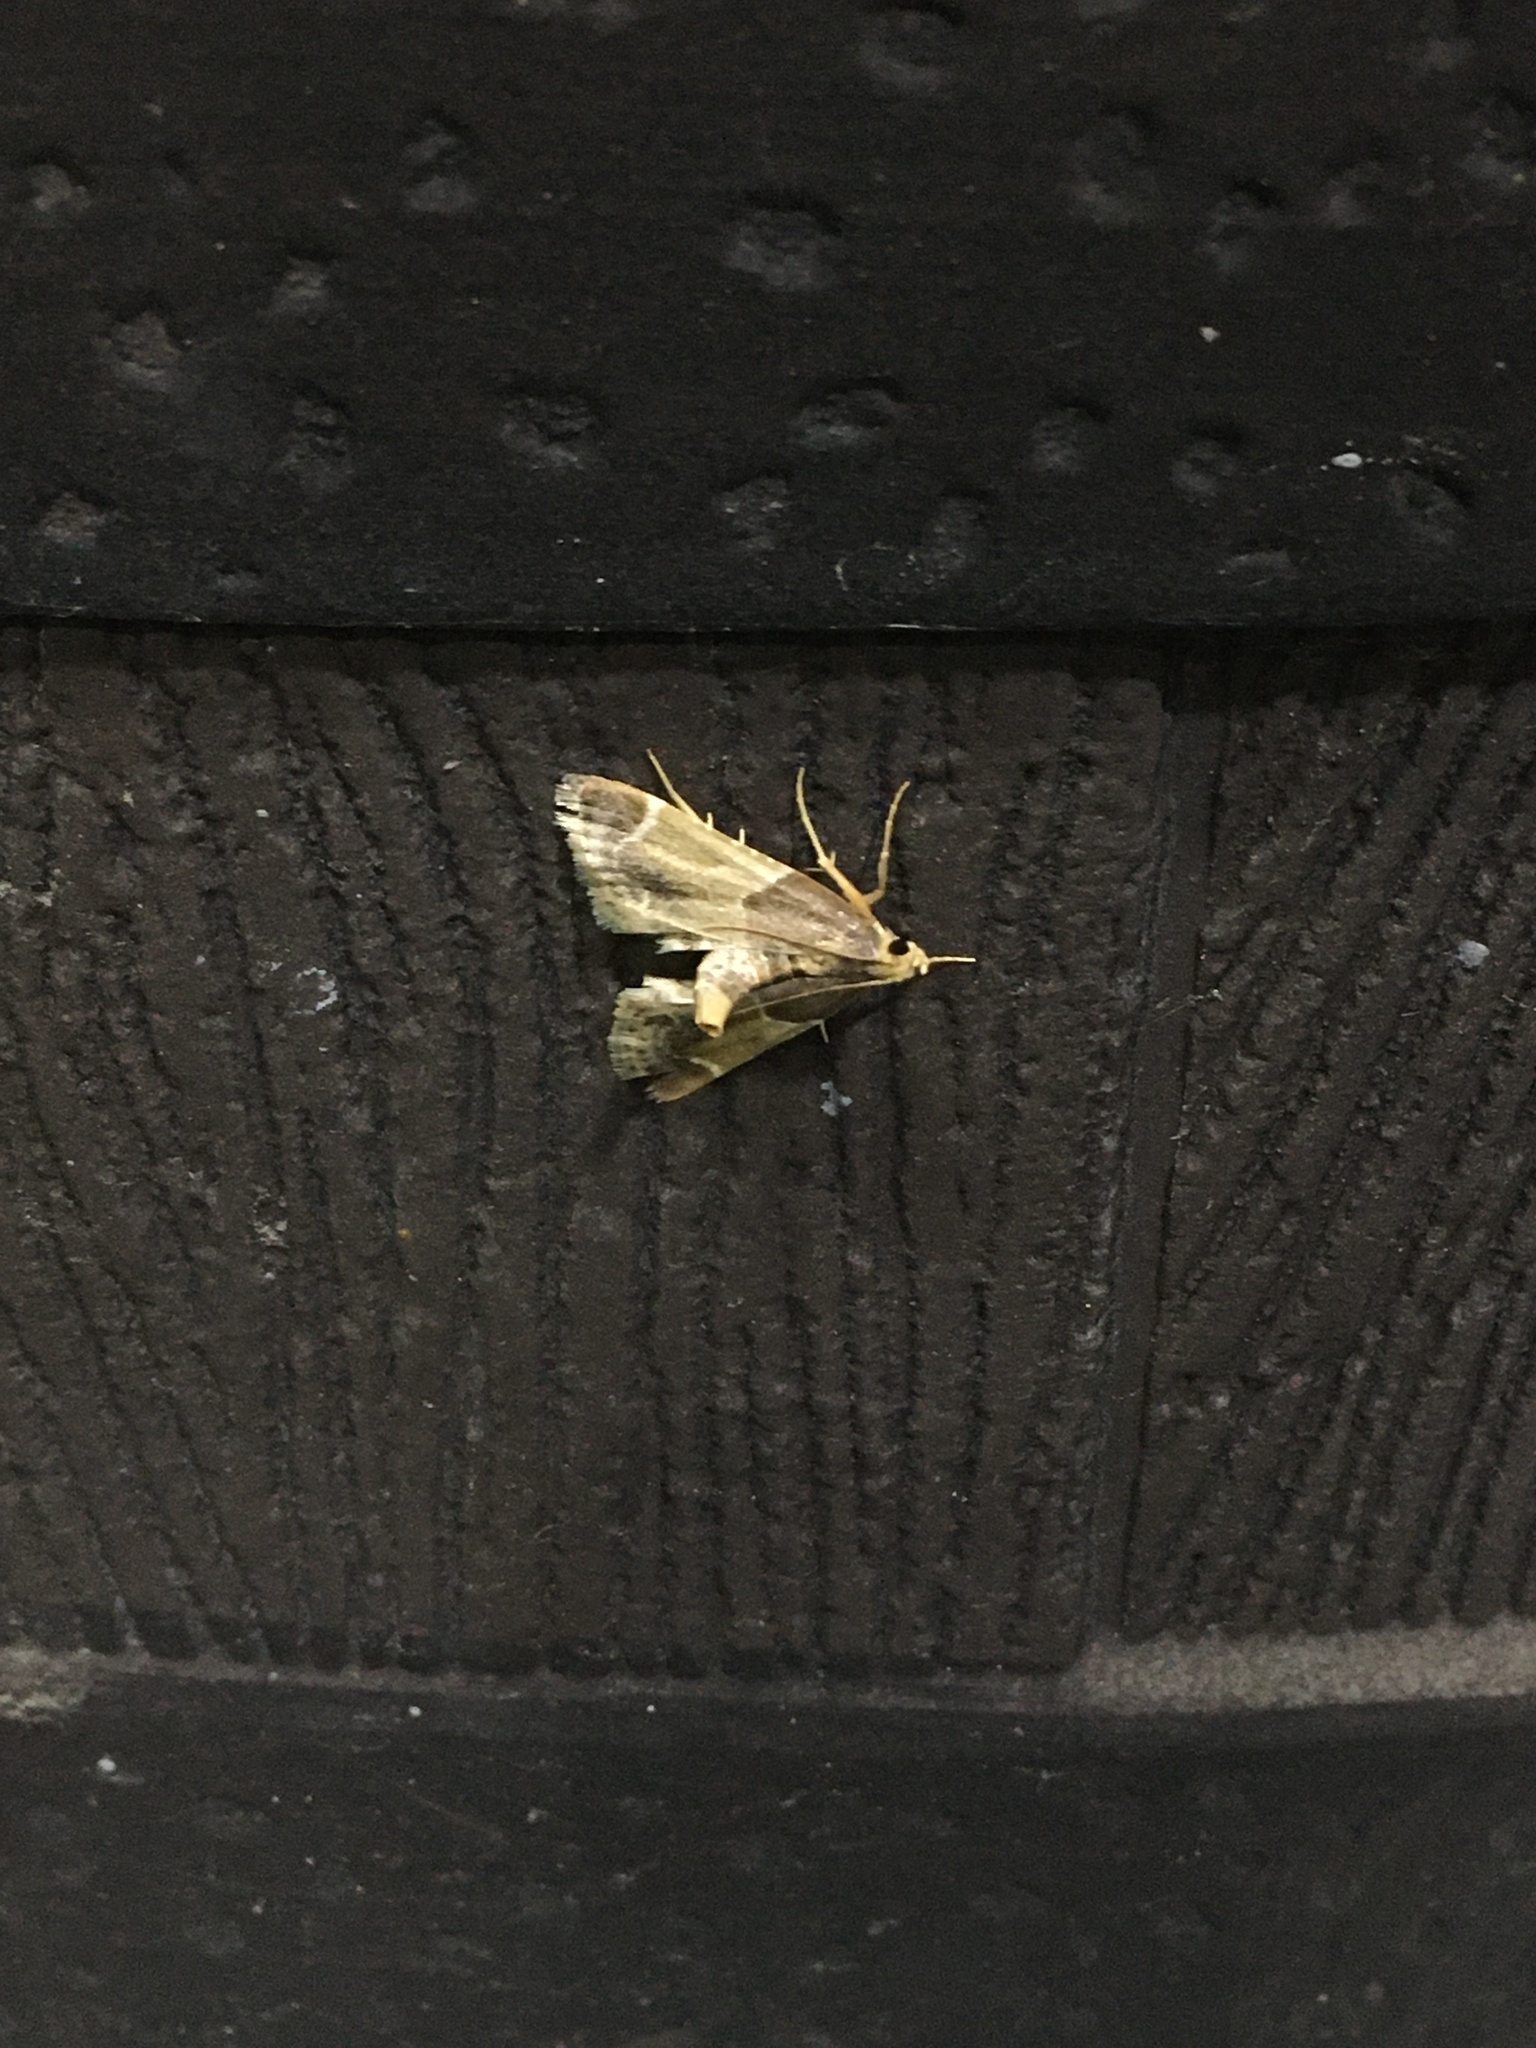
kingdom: Animalia
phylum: Arthropoda
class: Insecta
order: Lepidoptera
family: Pyralidae
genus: Pyralis
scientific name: Pyralis farinalis
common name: Meal moth
